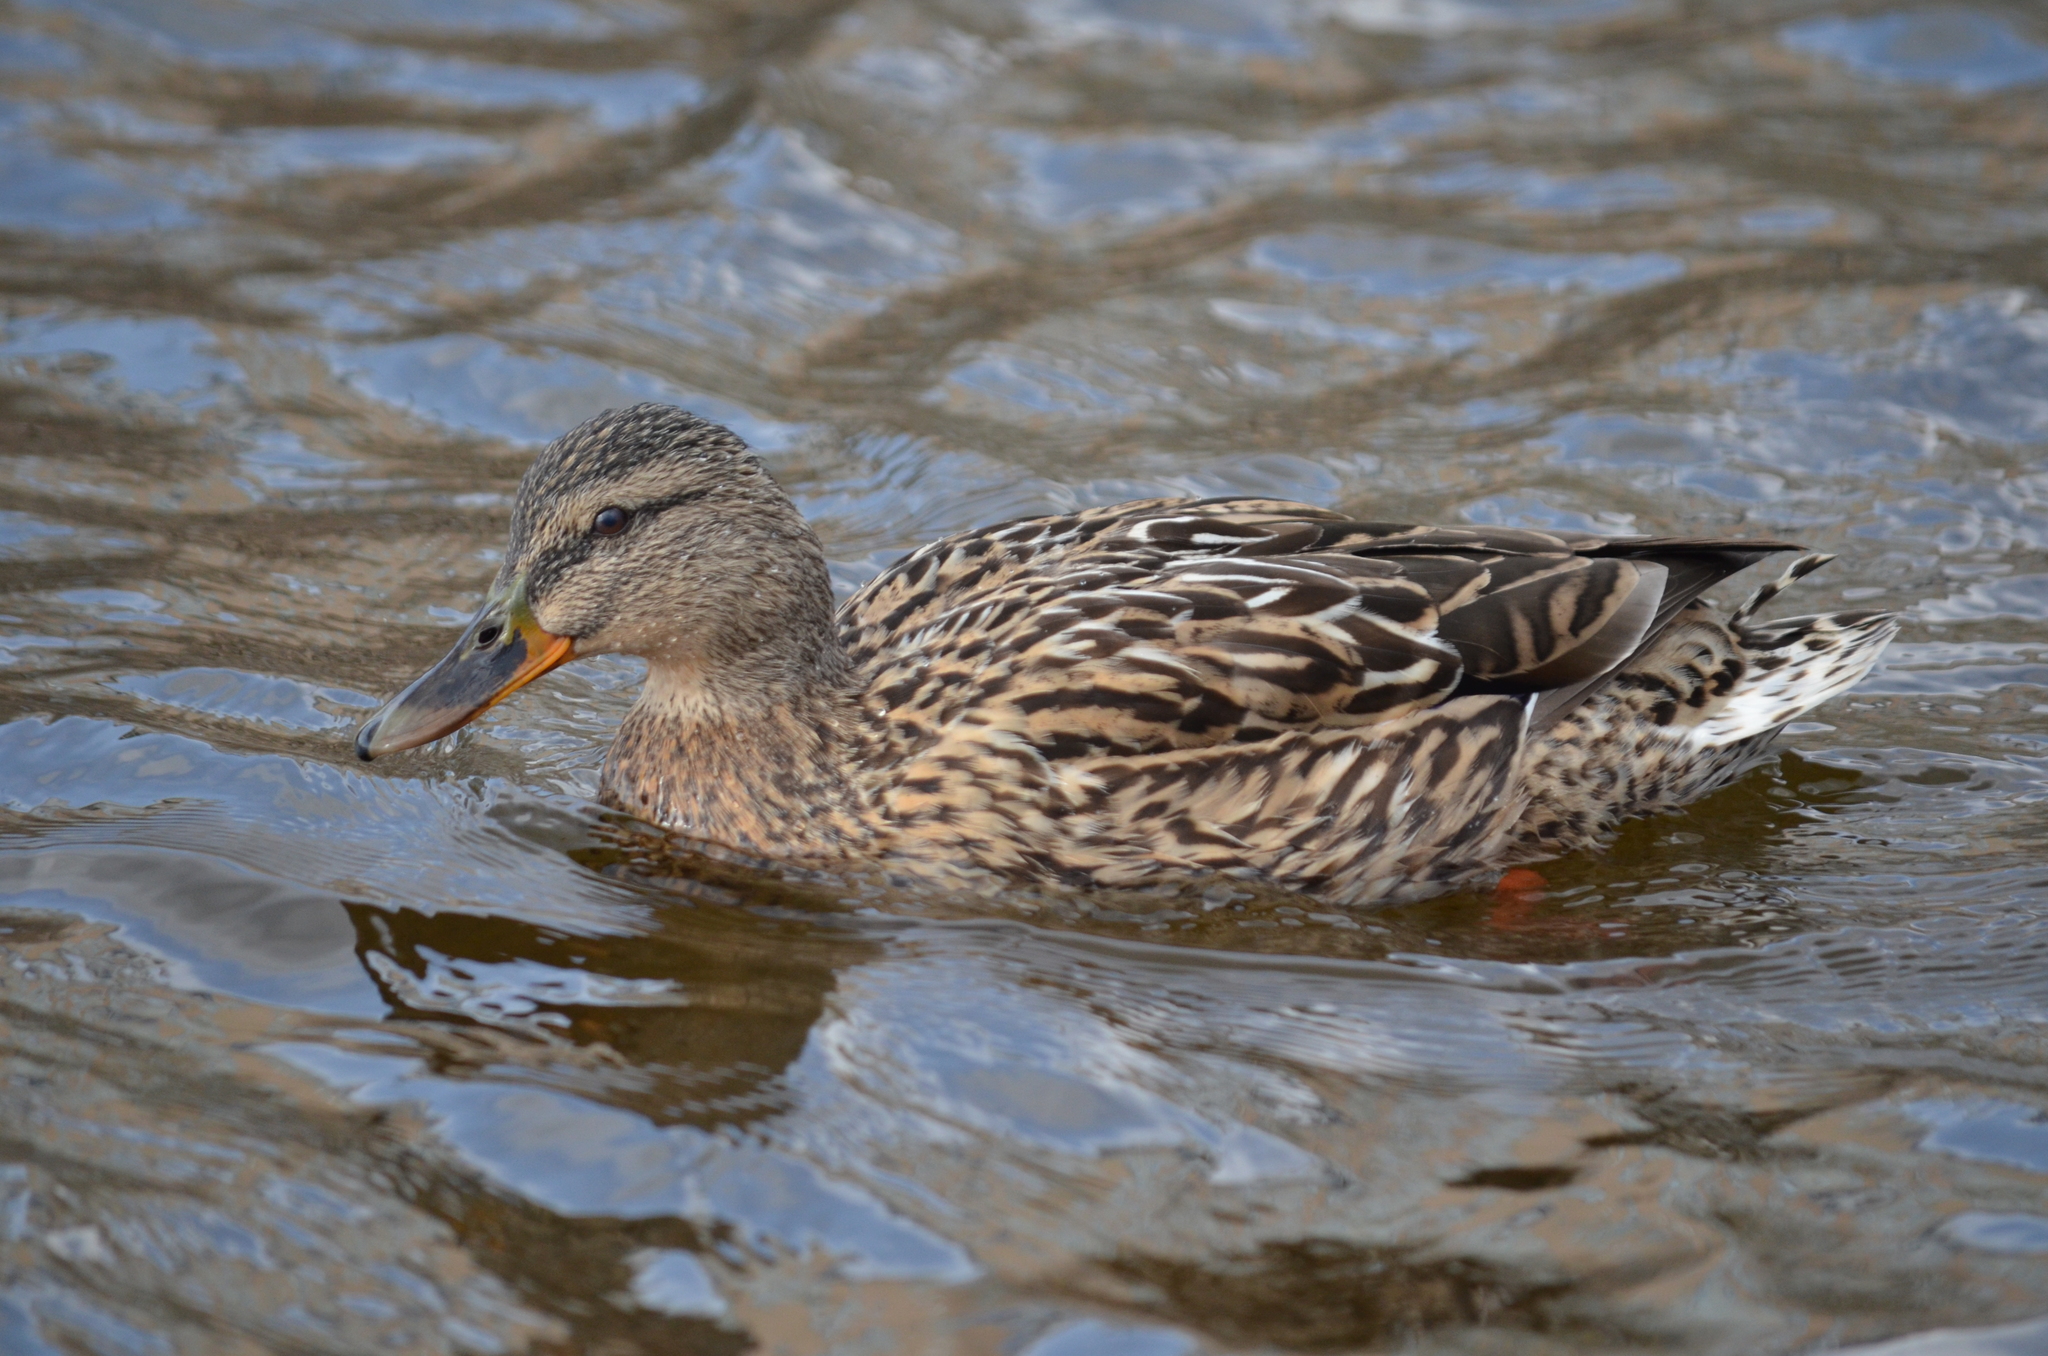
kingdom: Animalia
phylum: Chordata
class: Aves
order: Anseriformes
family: Anatidae
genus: Anas
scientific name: Anas platyrhynchos
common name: Mallard
